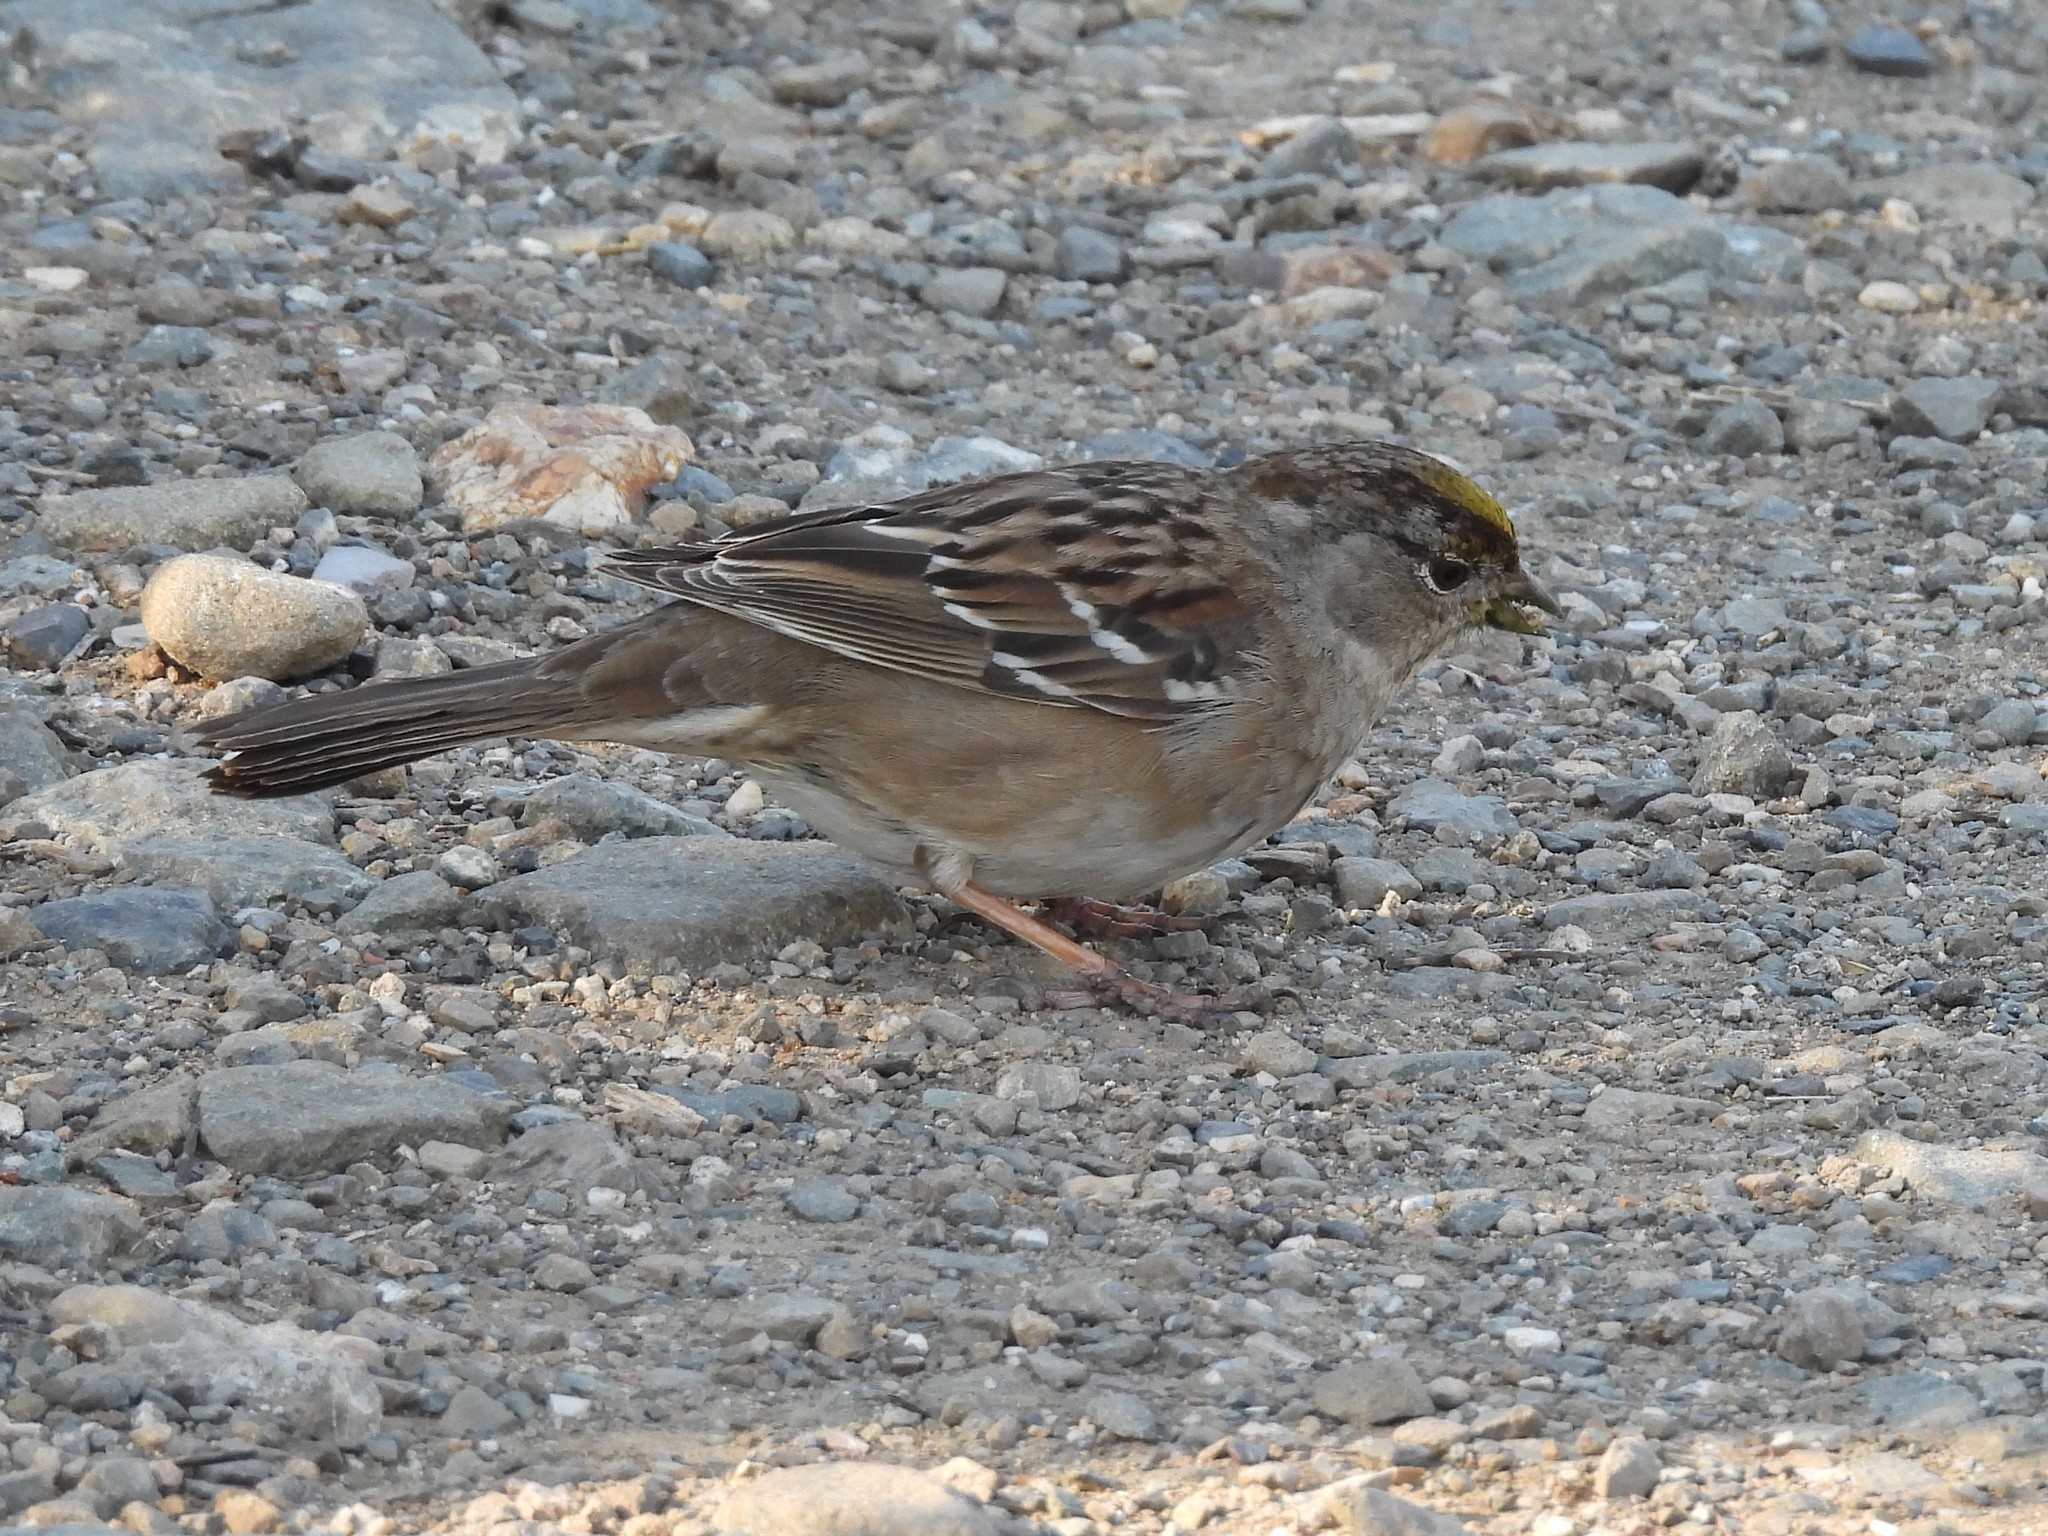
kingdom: Animalia
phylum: Chordata
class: Aves
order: Passeriformes
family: Passerellidae
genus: Zonotrichia
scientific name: Zonotrichia atricapilla
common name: Golden-crowned sparrow
